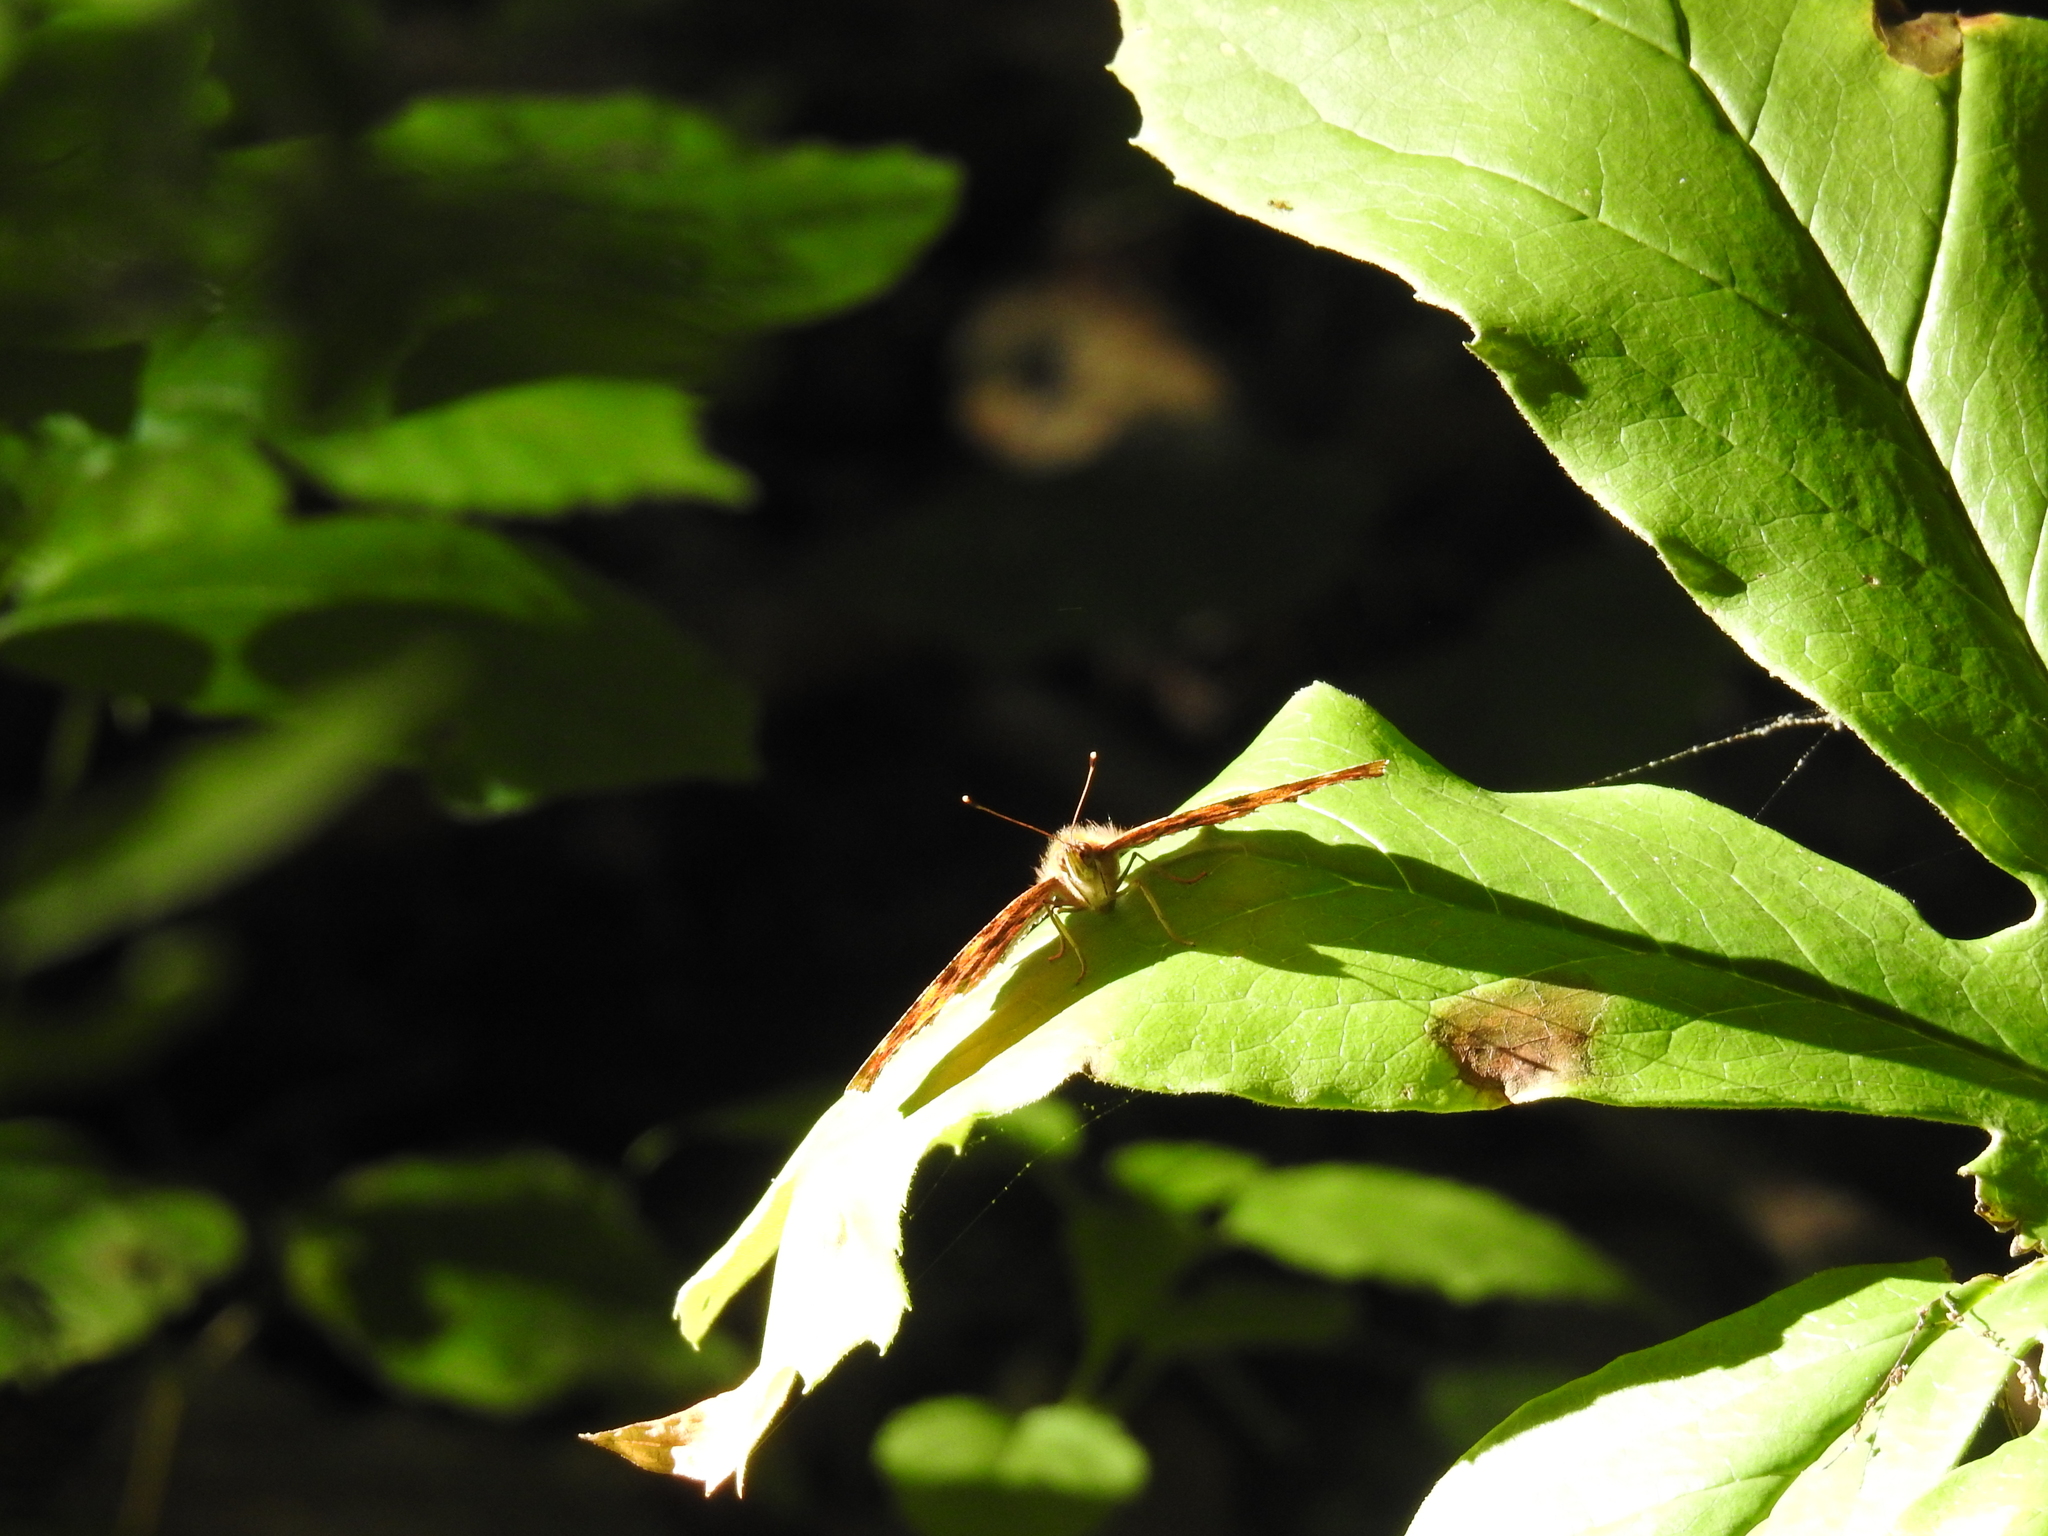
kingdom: Animalia
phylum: Arthropoda
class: Insecta
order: Lepidoptera
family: Nymphalidae
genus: Polygonia
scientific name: Polygonia comma
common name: Eastern comma
